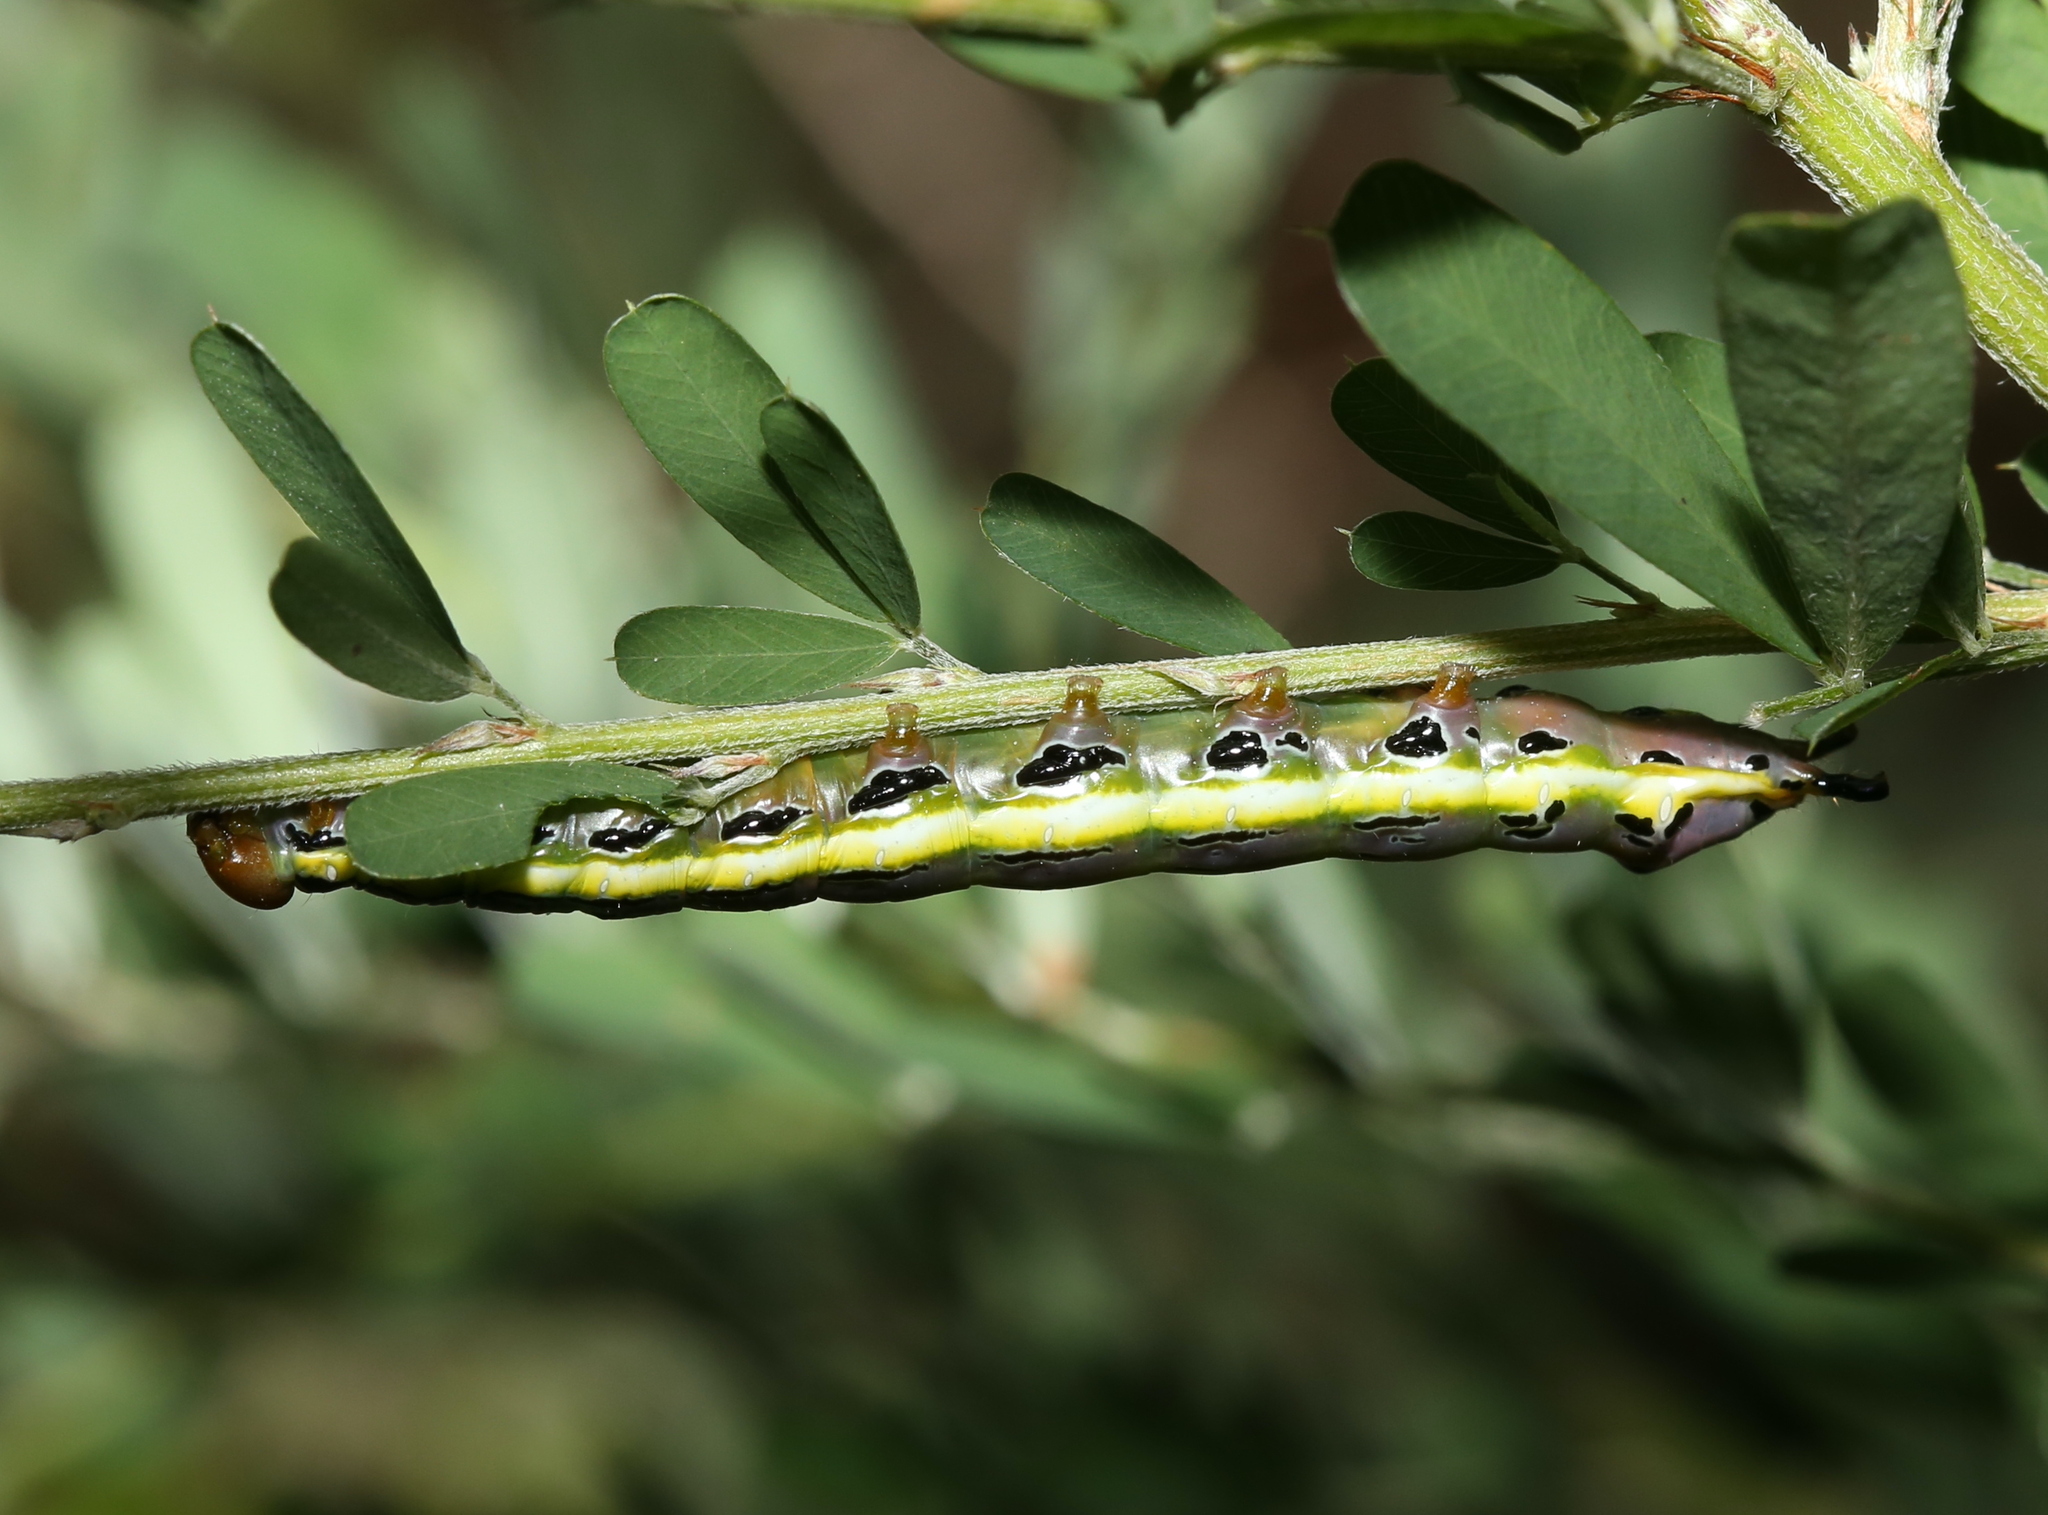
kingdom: Animalia
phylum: Arthropoda
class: Insecta
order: Lepidoptera
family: Notodontidae
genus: Dasylophia
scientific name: Dasylophia anguina
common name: Black-spotted prominent
